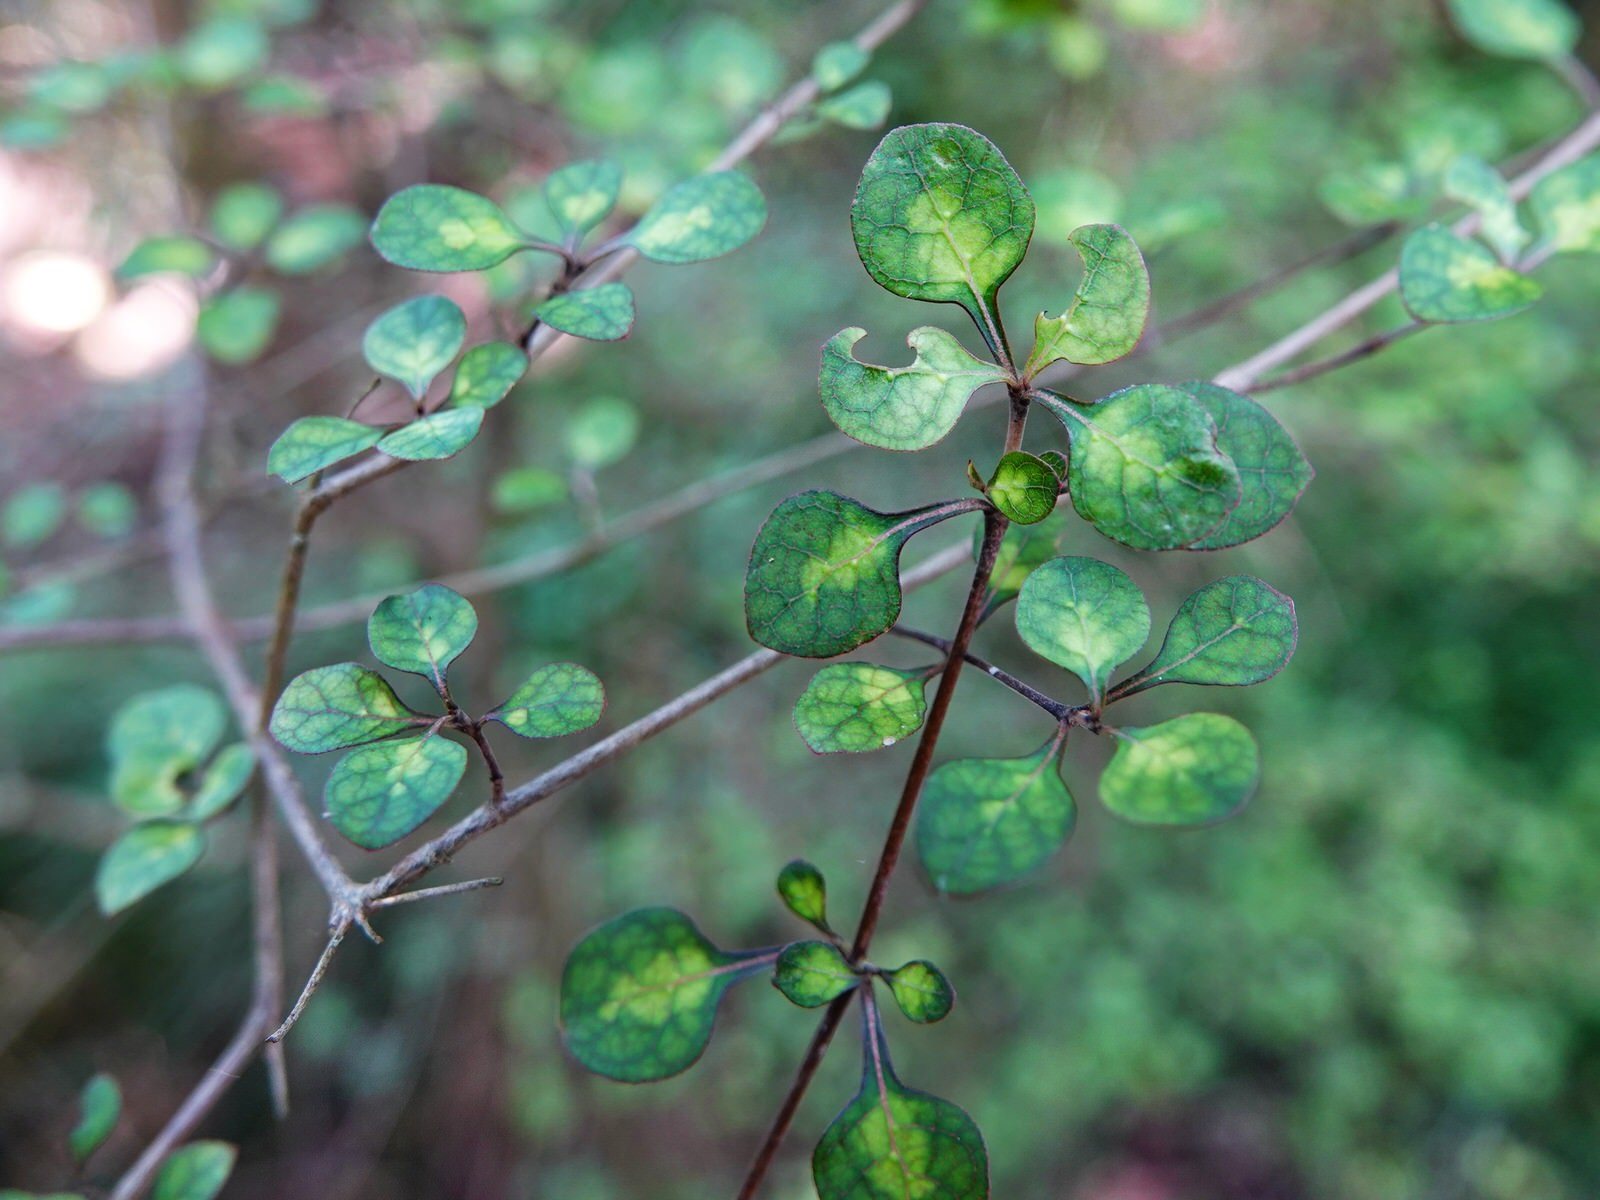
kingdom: Plantae
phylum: Tracheophyta
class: Magnoliopsida
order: Gentianales
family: Rubiaceae
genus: Coprosma
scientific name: Coprosma tenuicaulis
